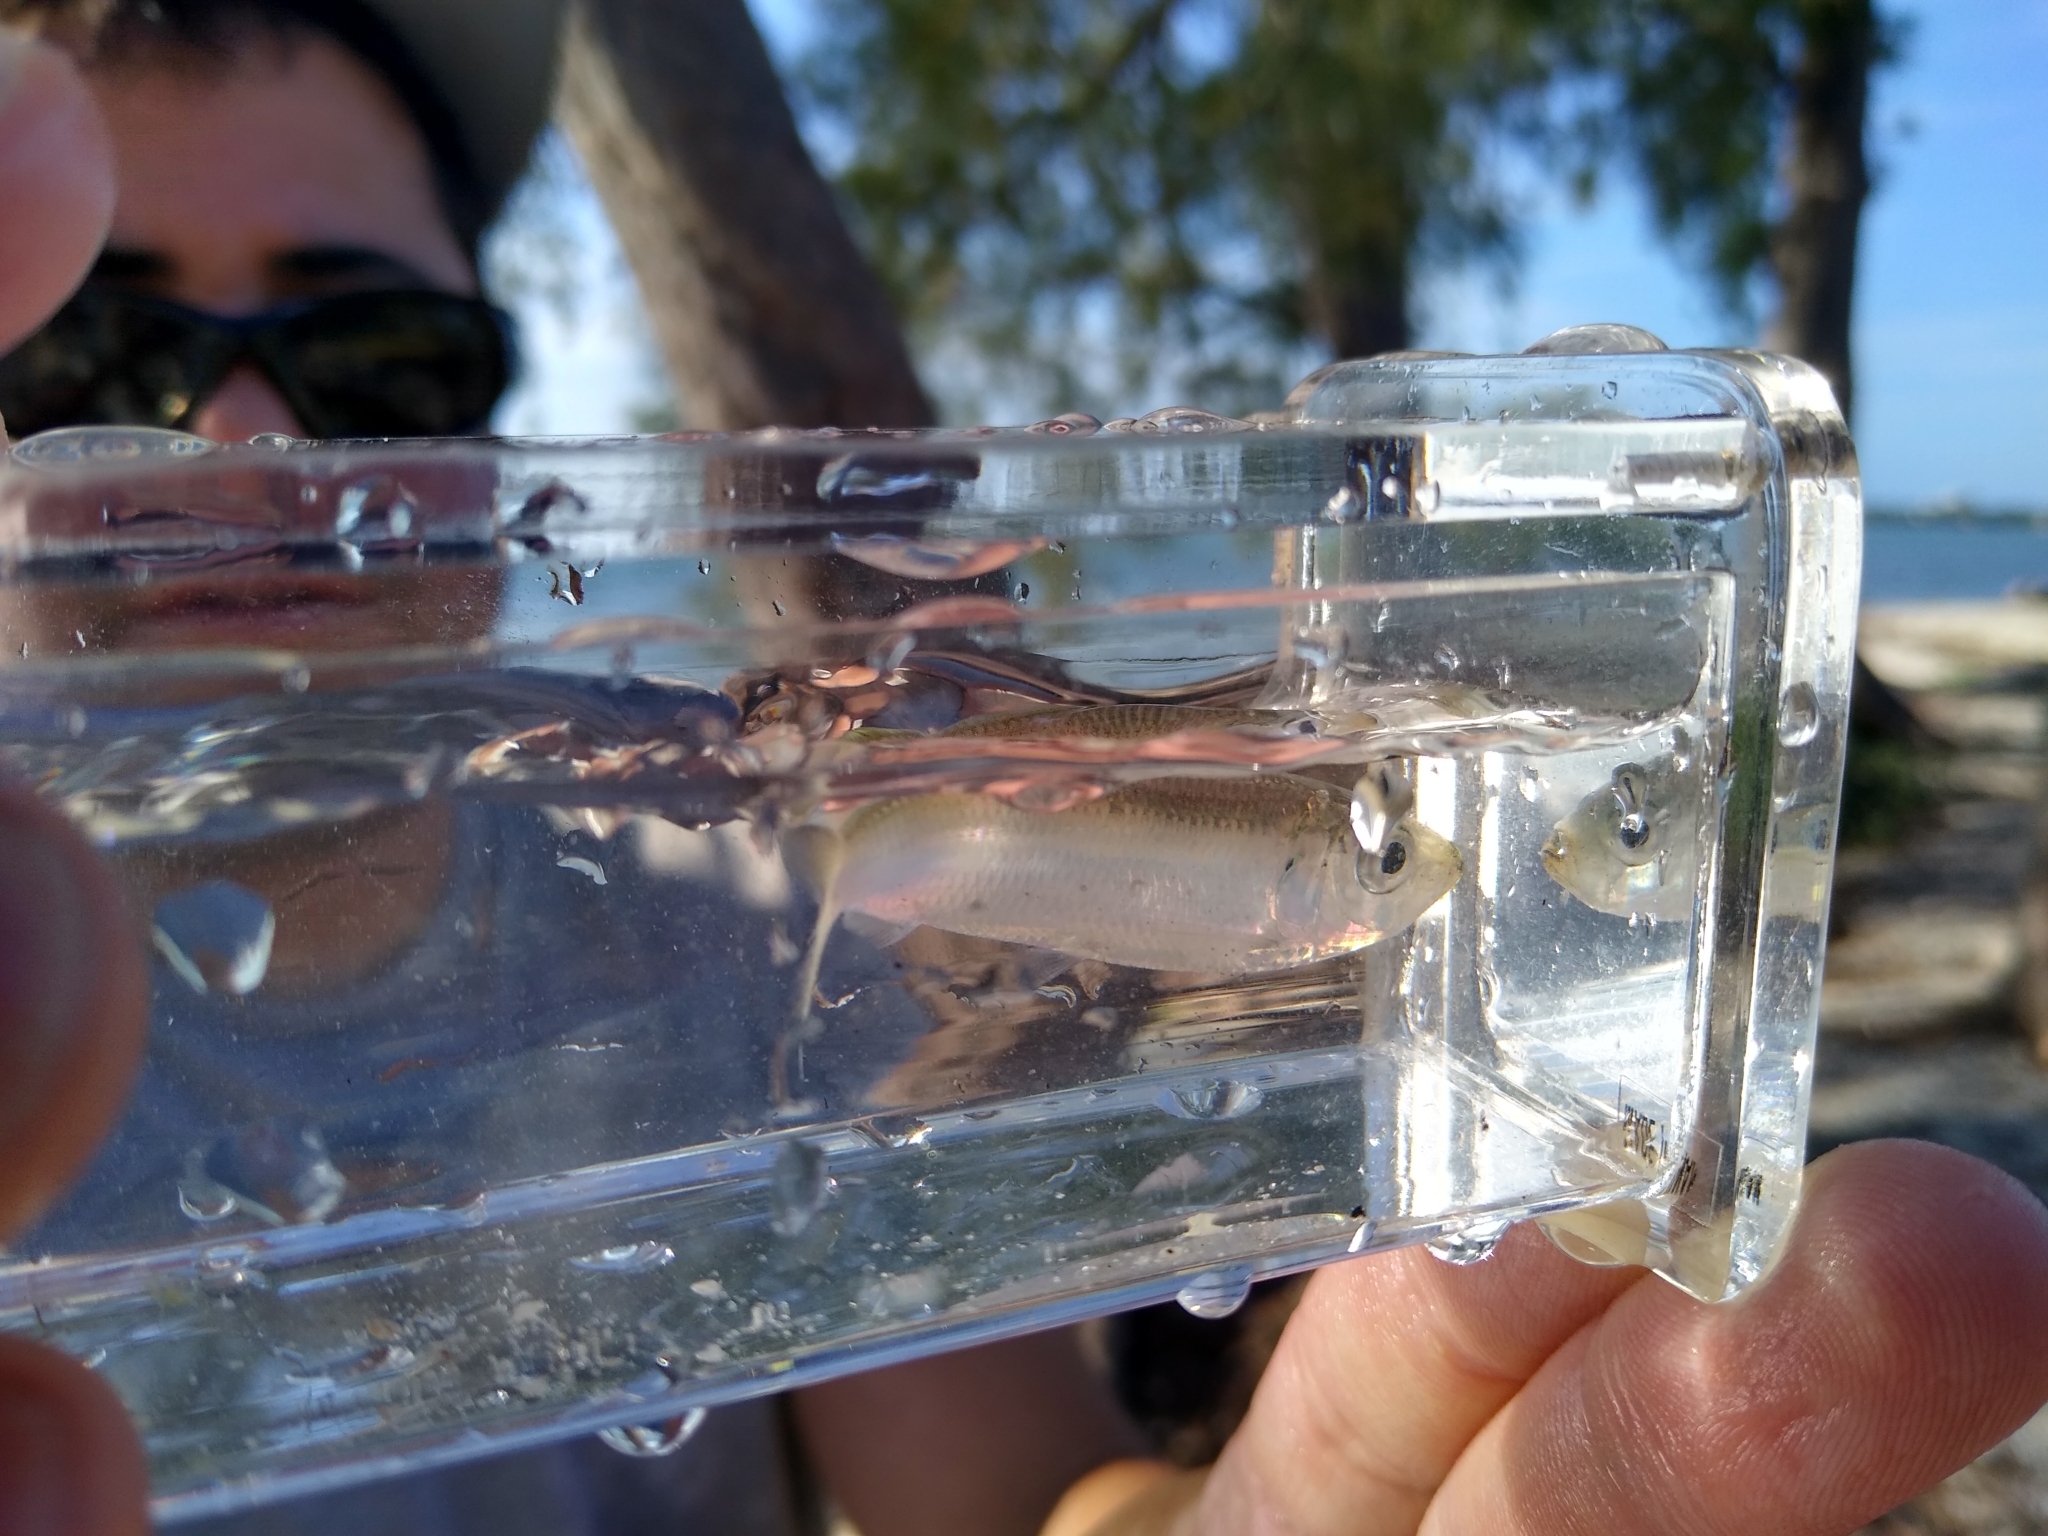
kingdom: Animalia
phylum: Chordata
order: Clupeiformes
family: Clupeidae
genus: Harengula
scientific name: Harengula jaguana
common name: Scaled sardine
